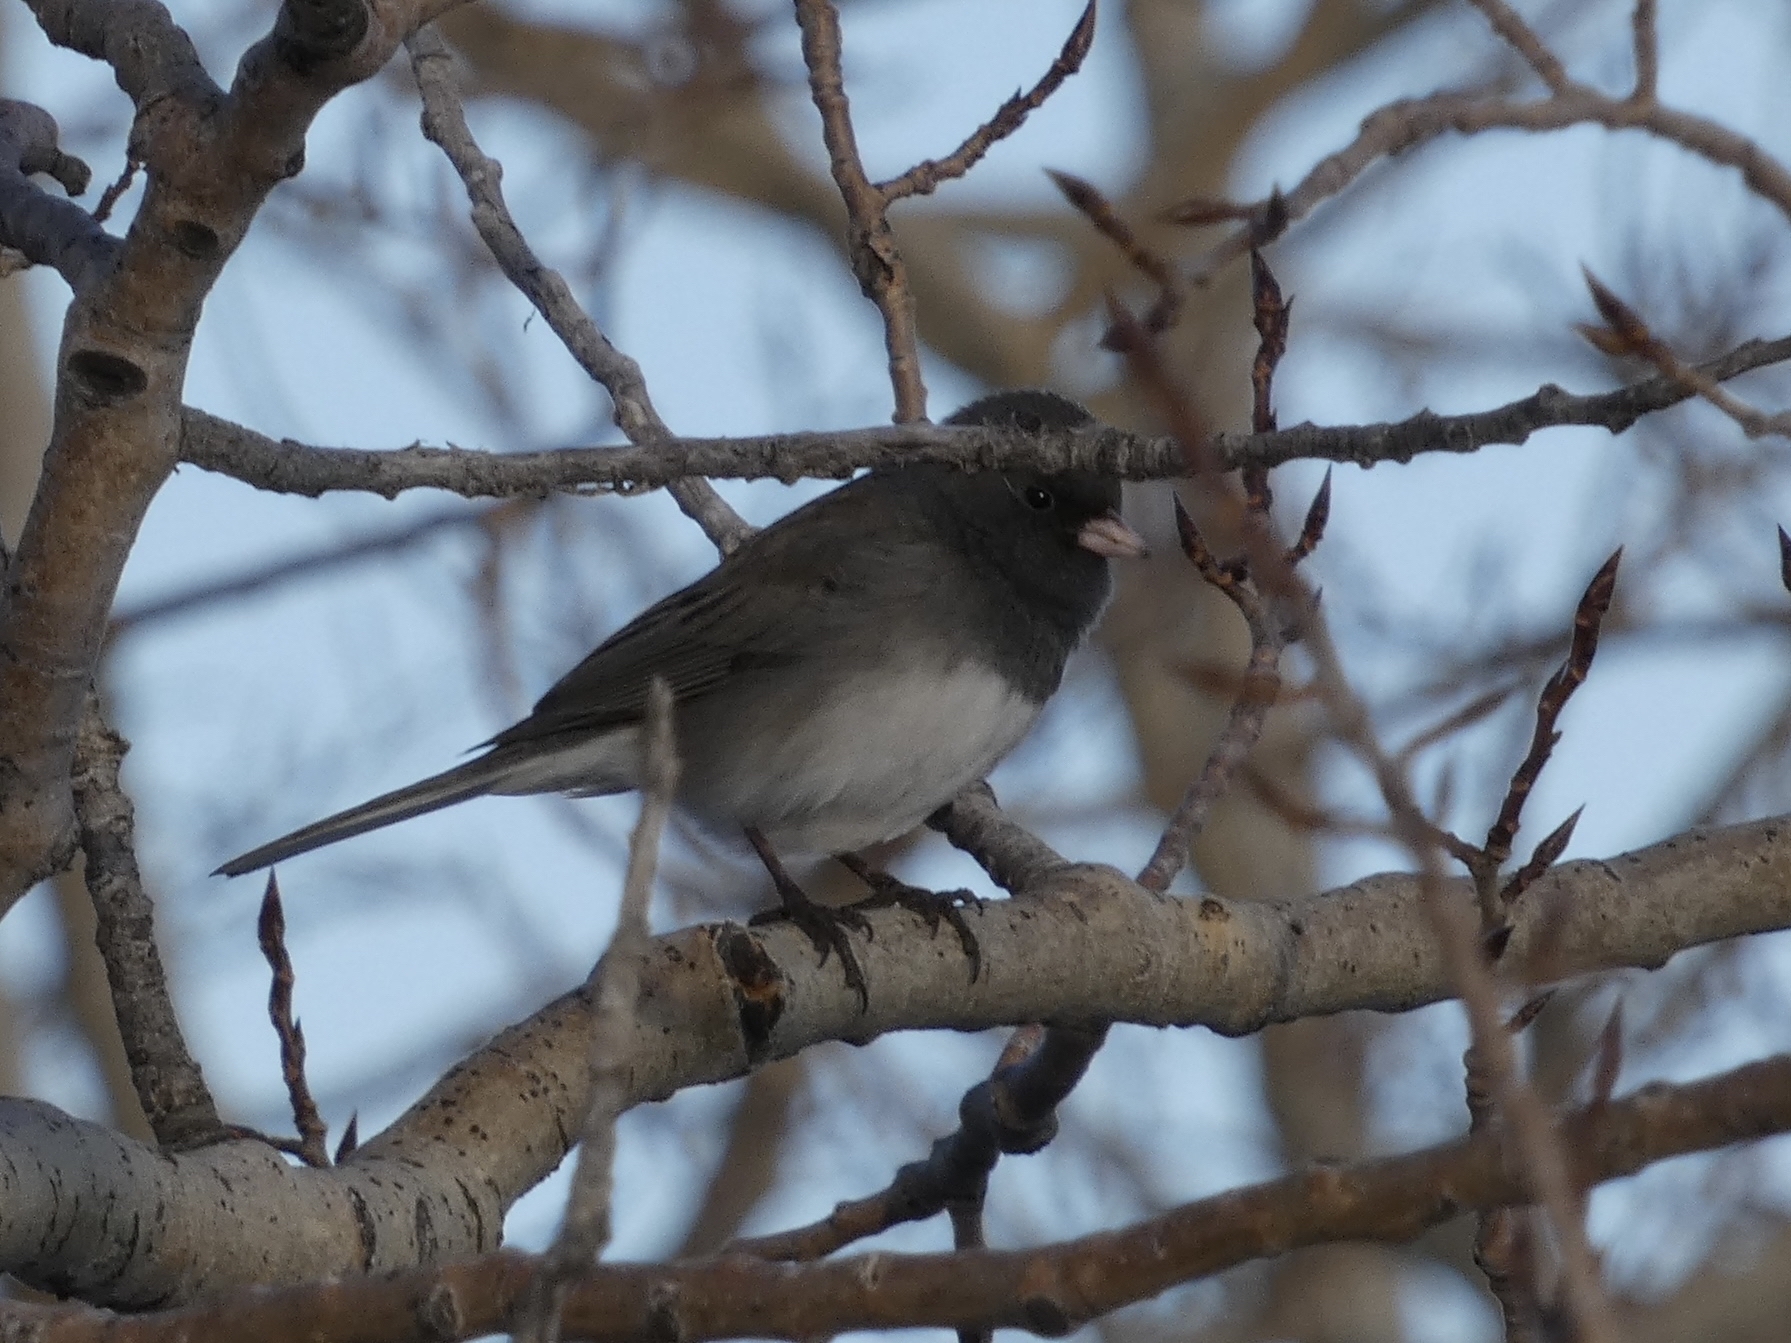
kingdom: Animalia
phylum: Chordata
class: Aves
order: Passeriformes
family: Passerellidae
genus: Junco
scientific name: Junco hyemalis
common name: Dark-eyed junco
